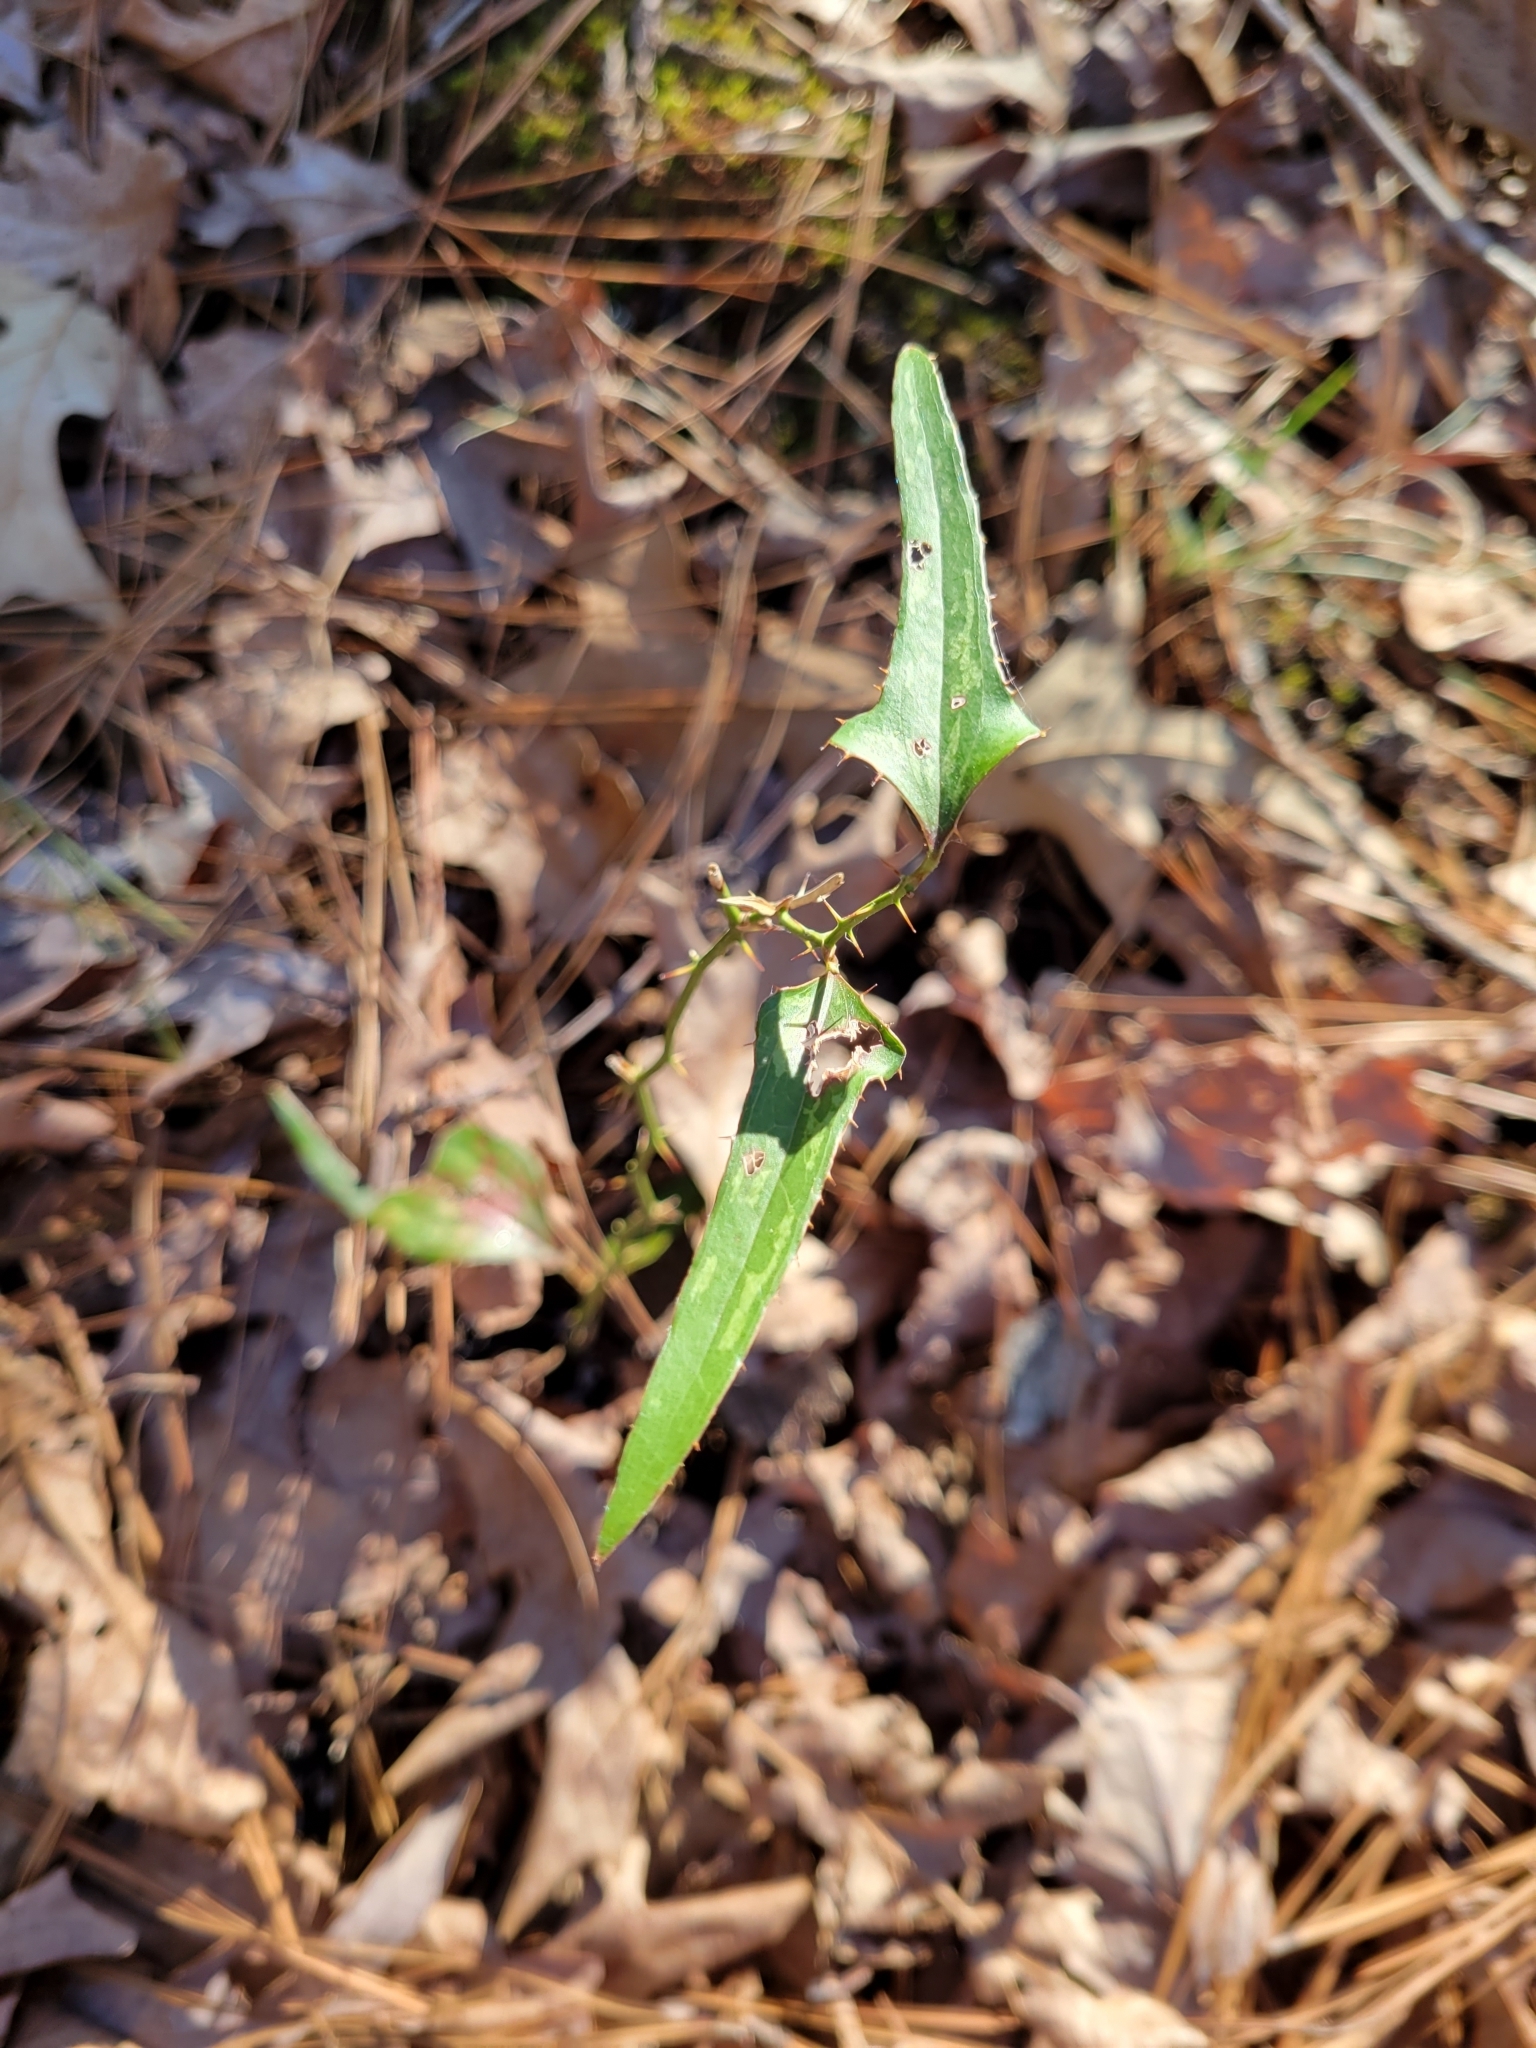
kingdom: Plantae
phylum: Tracheophyta
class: Liliopsida
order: Liliales
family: Smilacaceae
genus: Smilax
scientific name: Smilax bona-nox
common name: Catbrier
